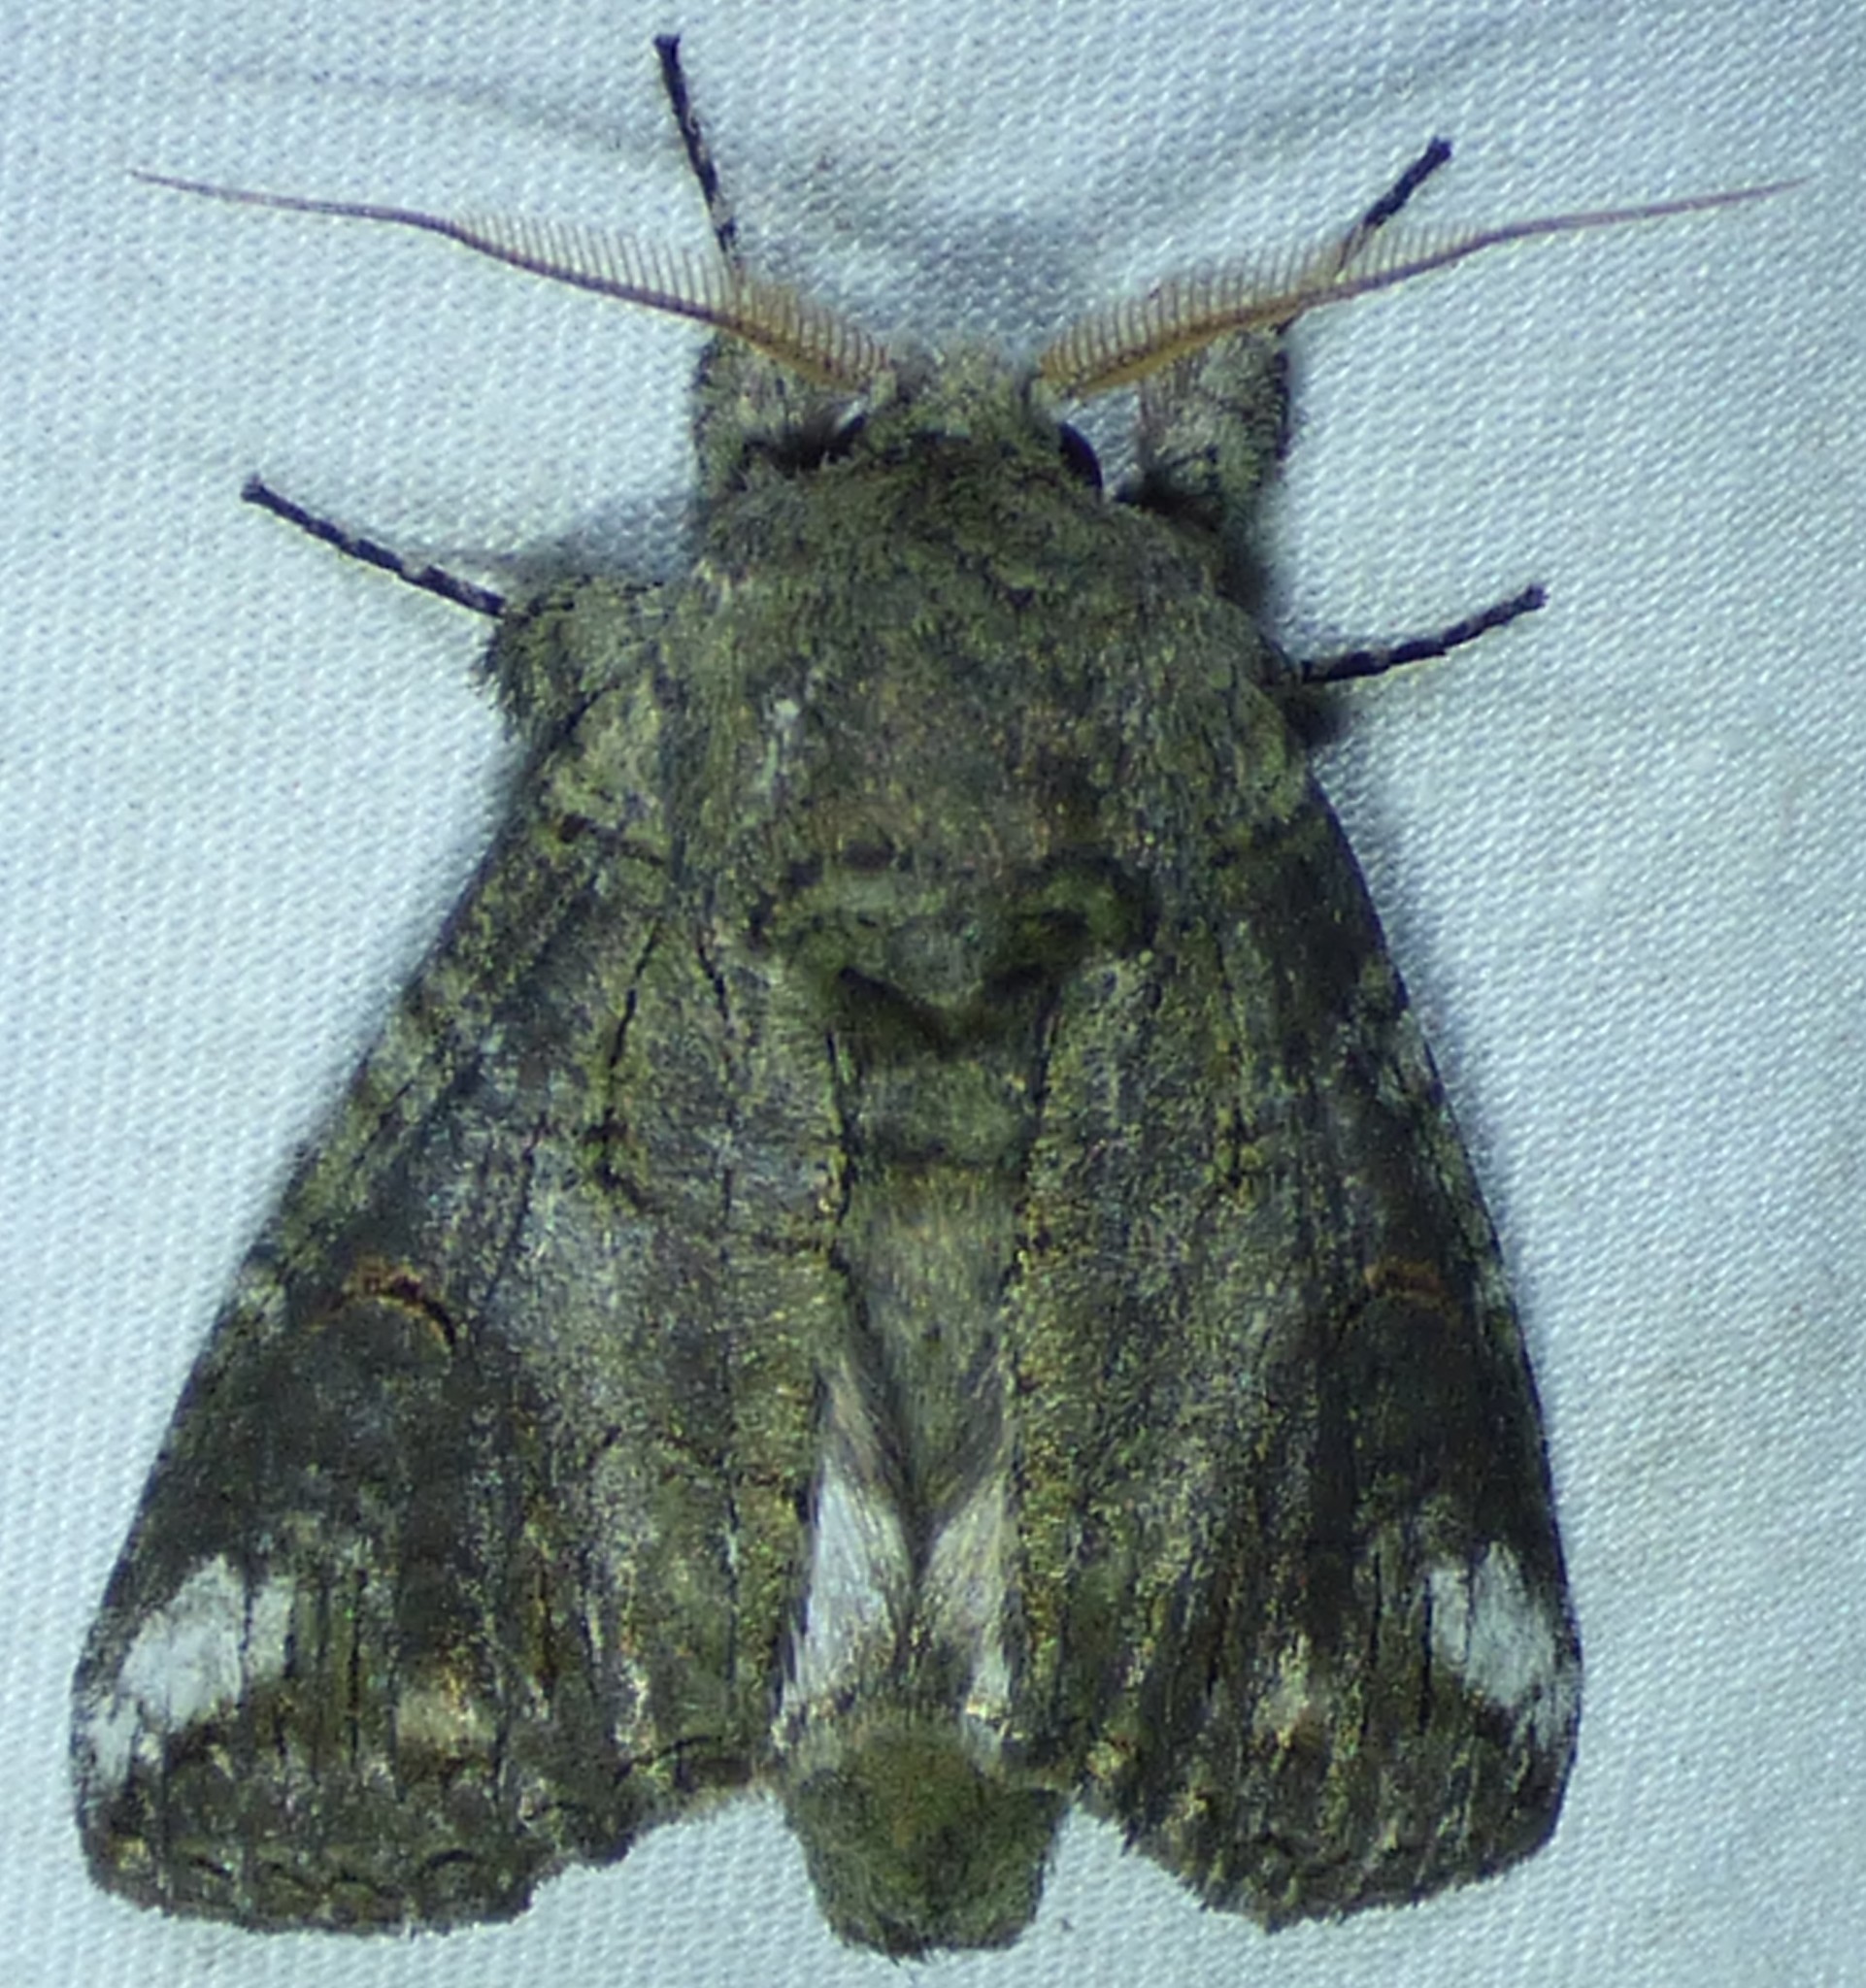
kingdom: Animalia
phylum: Arthropoda
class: Insecta
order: Lepidoptera
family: Notodontidae
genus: Heterocampa
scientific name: Heterocampa obliqua
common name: Oblique heterocampa
